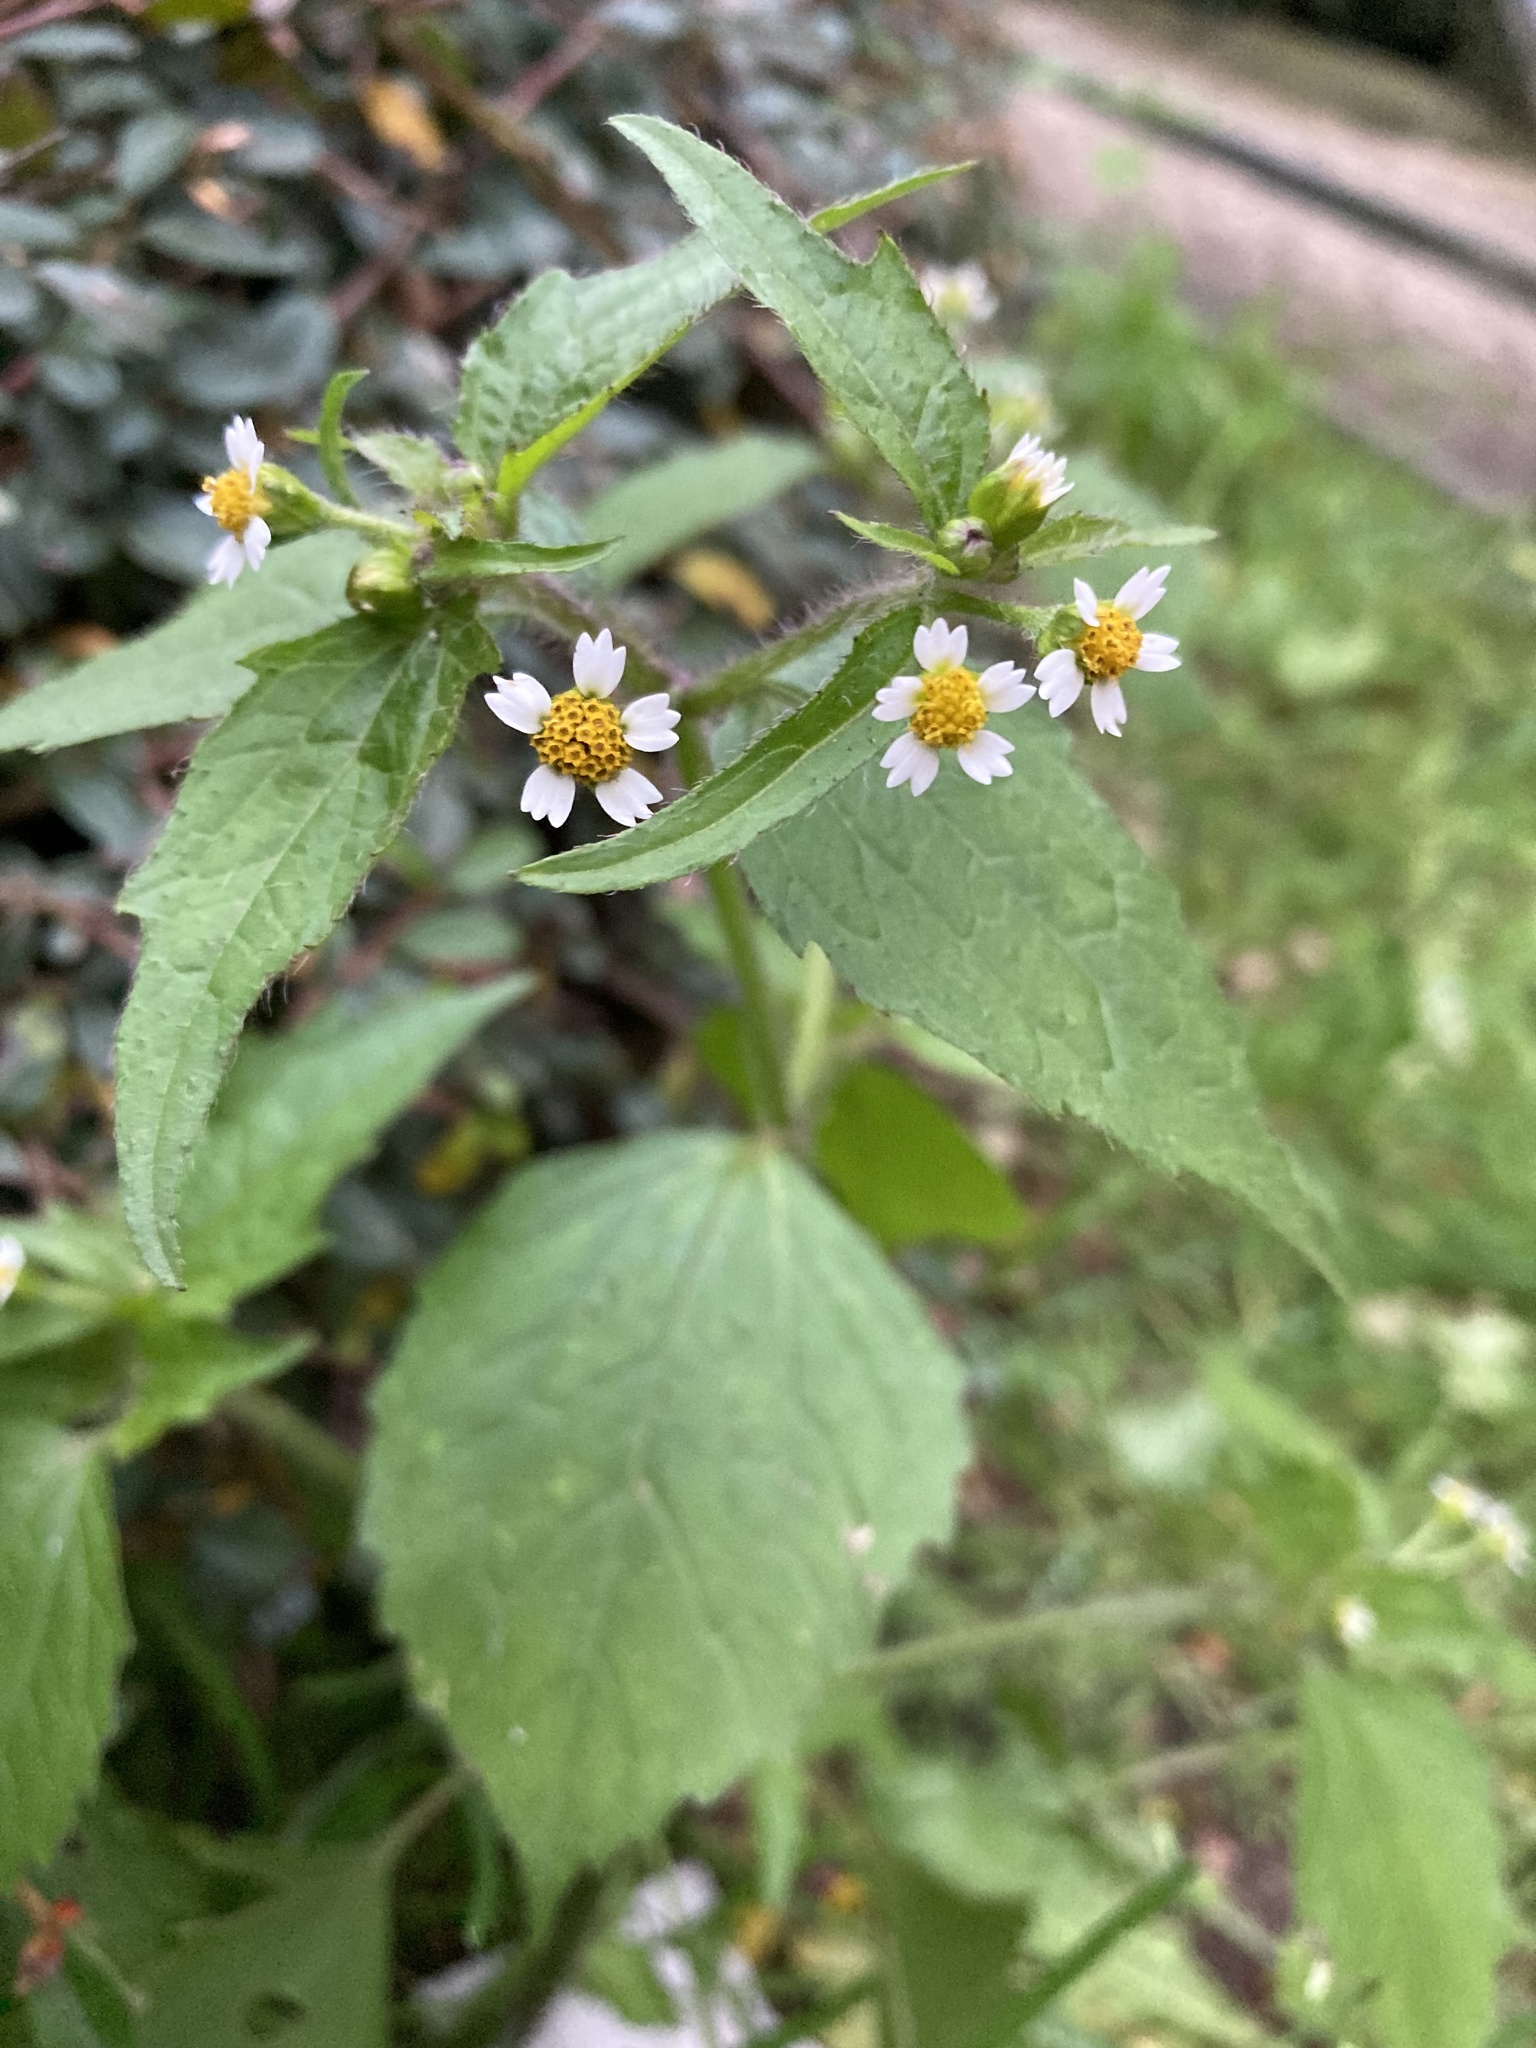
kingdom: Plantae
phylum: Tracheophyta
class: Magnoliopsida
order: Asterales
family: Asteraceae
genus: Galinsoga
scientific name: Galinsoga quadriradiata
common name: Shaggy soldier
